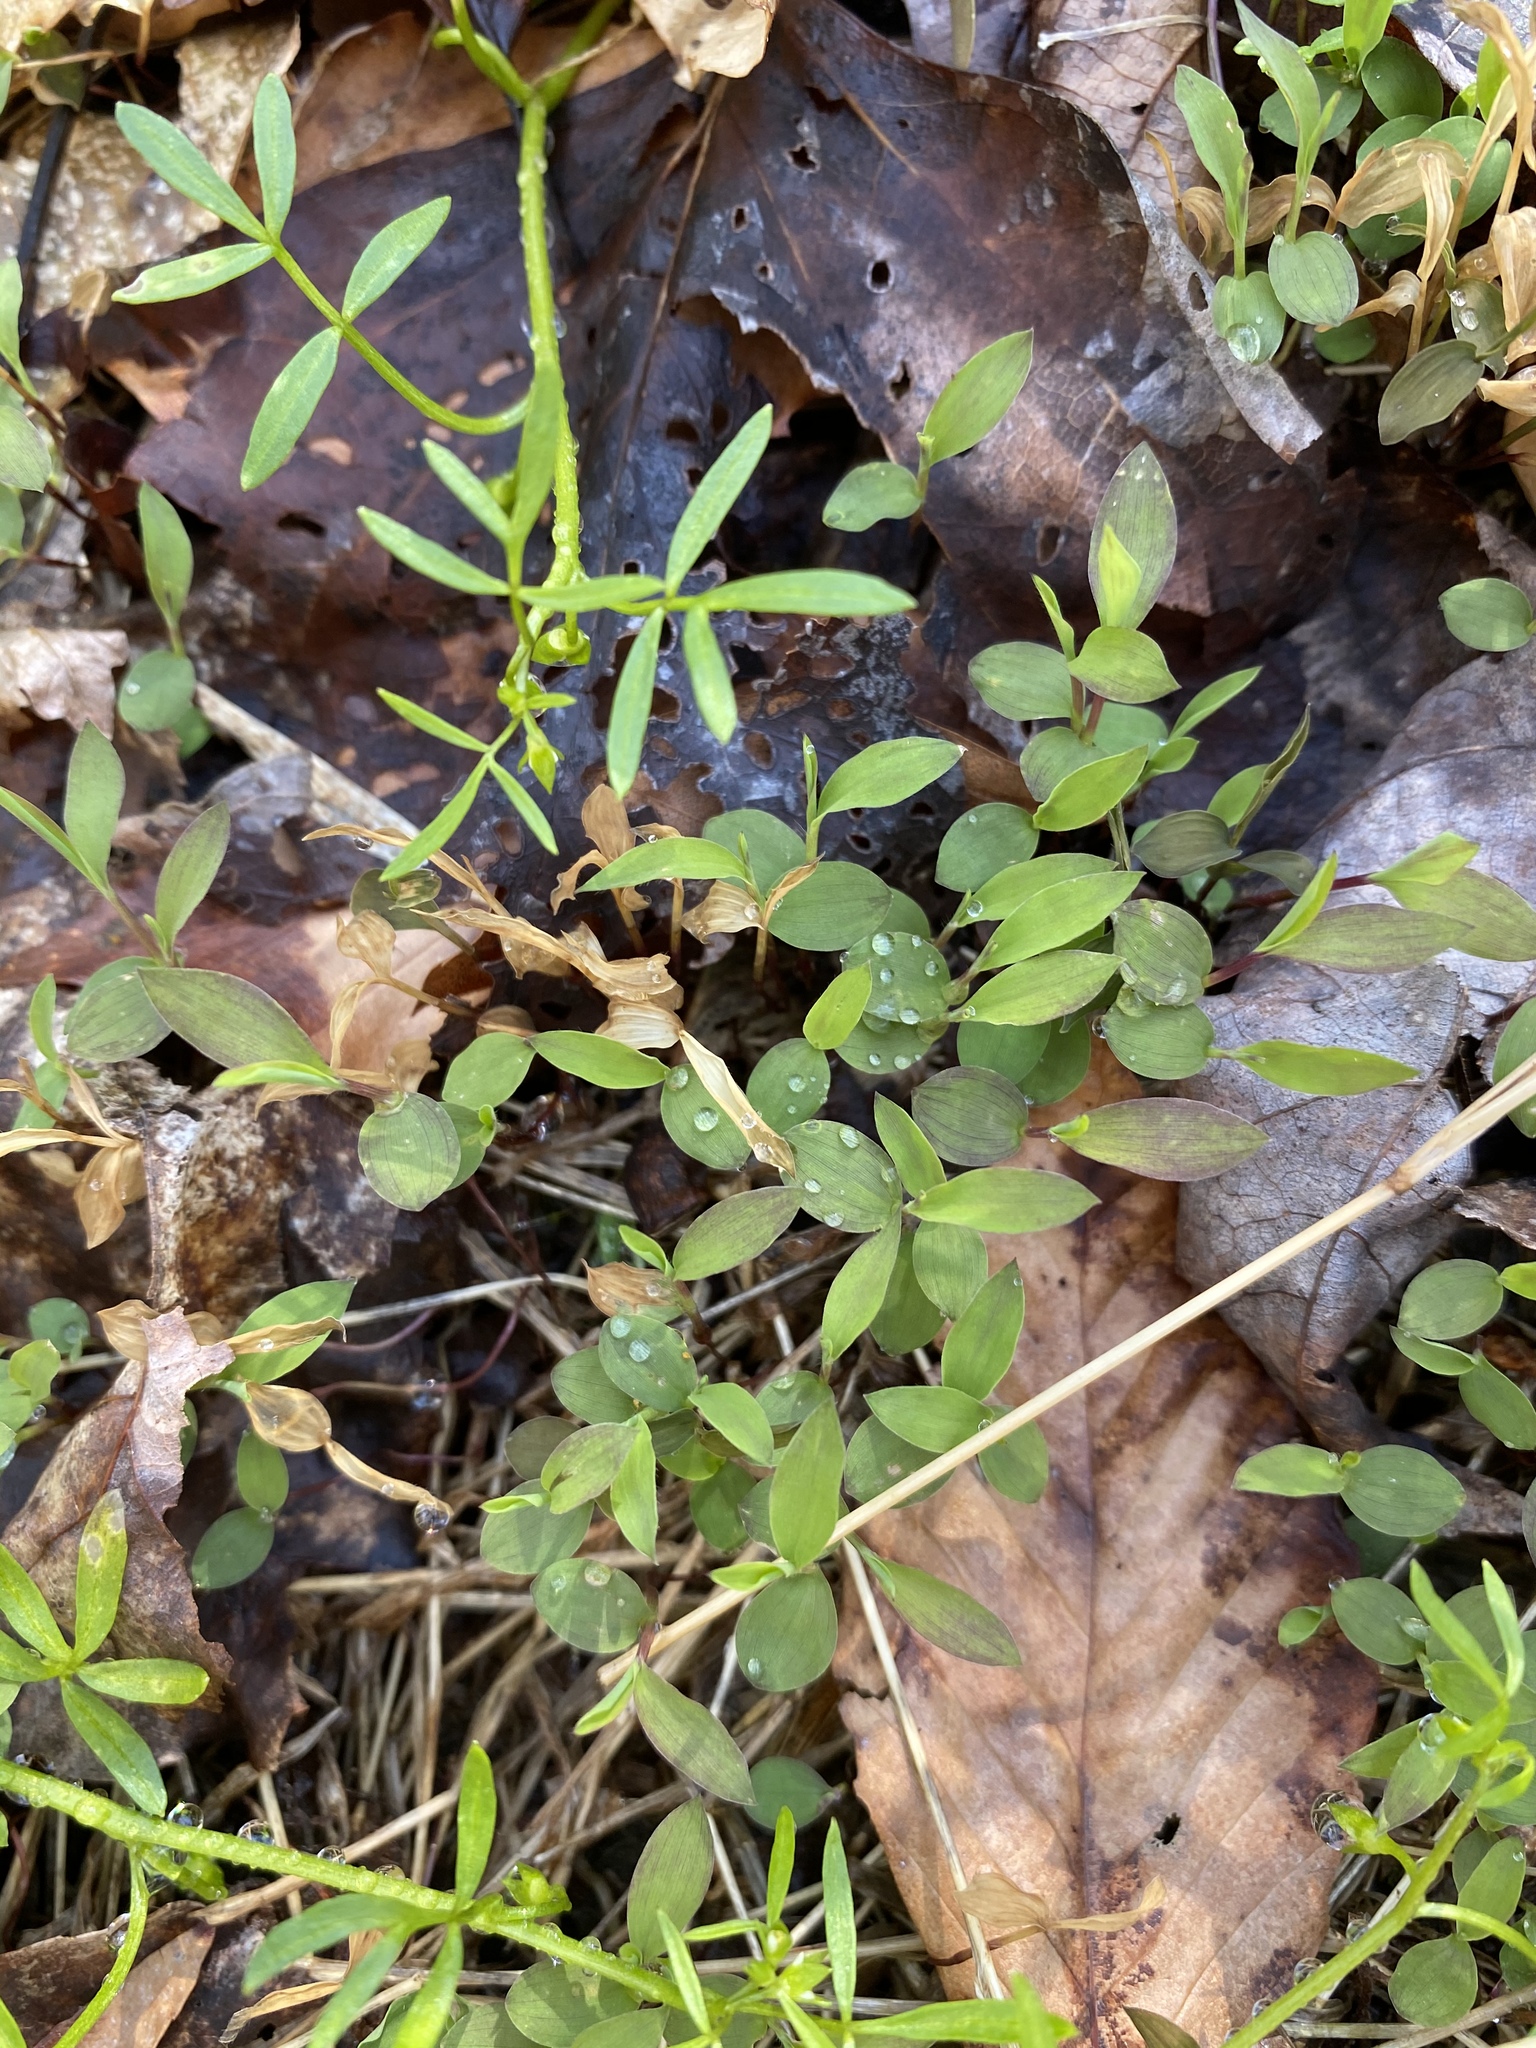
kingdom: Plantae
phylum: Tracheophyta
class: Liliopsida
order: Poales
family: Poaceae
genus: Microstegium
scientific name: Microstegium vimineum
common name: Japanese stiltgrass
